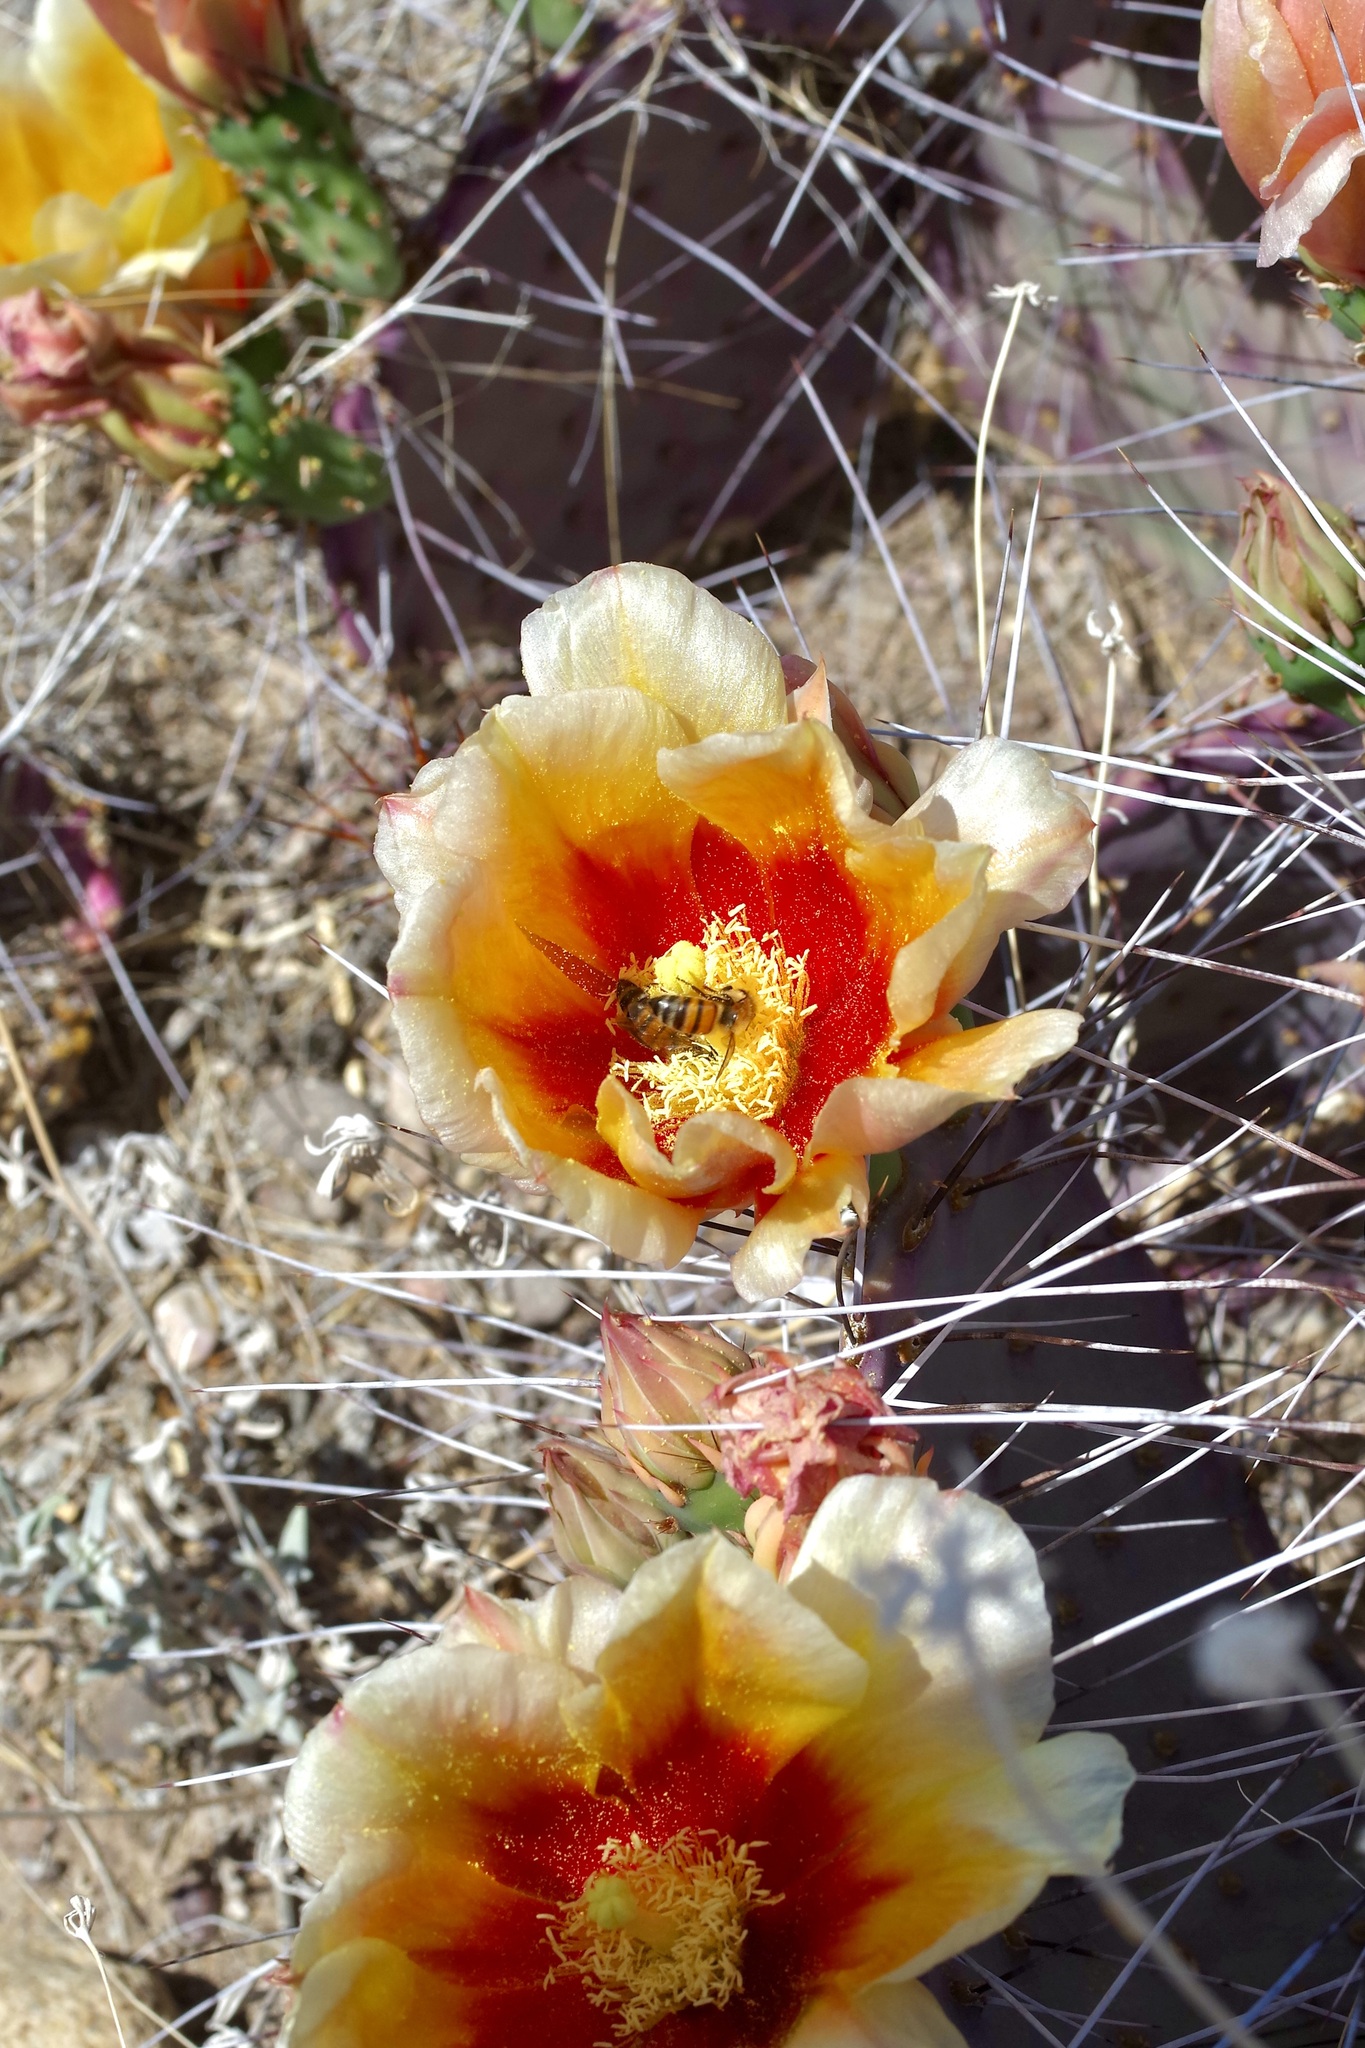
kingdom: Animalia
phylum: Arthropoda
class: Insecta
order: Hymenoptera
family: Apidae
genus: Apis
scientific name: Apis mellifera
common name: Honey bee
